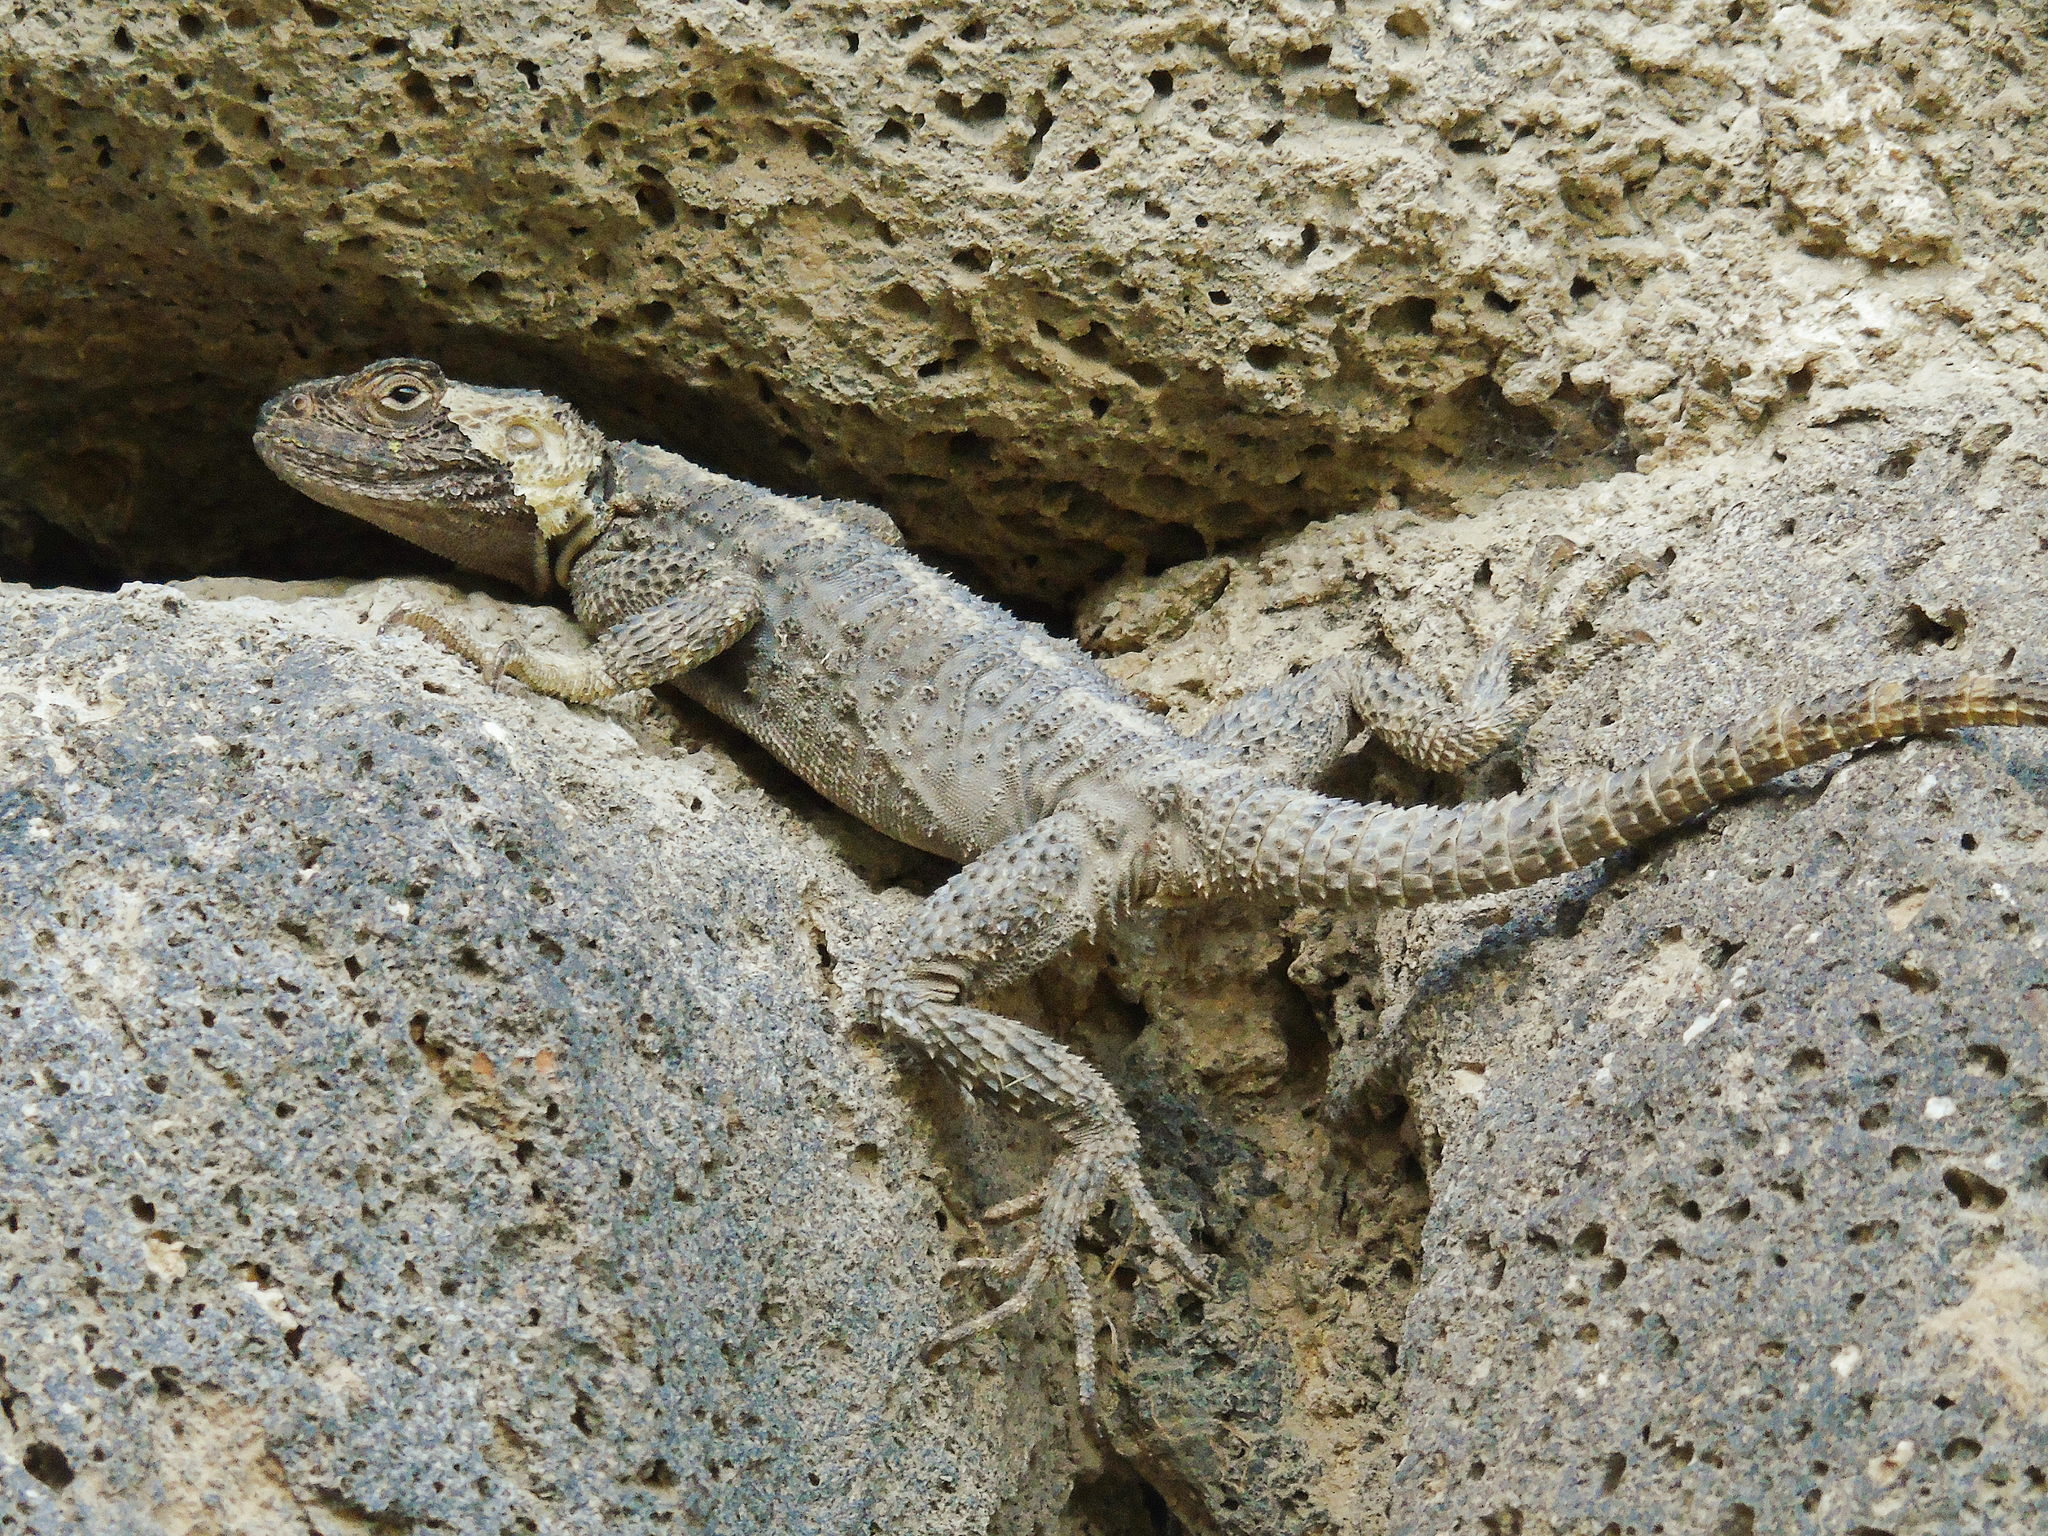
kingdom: Animalia
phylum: Chordata
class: Squamata
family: Agamidae
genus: Stellagama
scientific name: Stellagama stellio
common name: Starred agama
